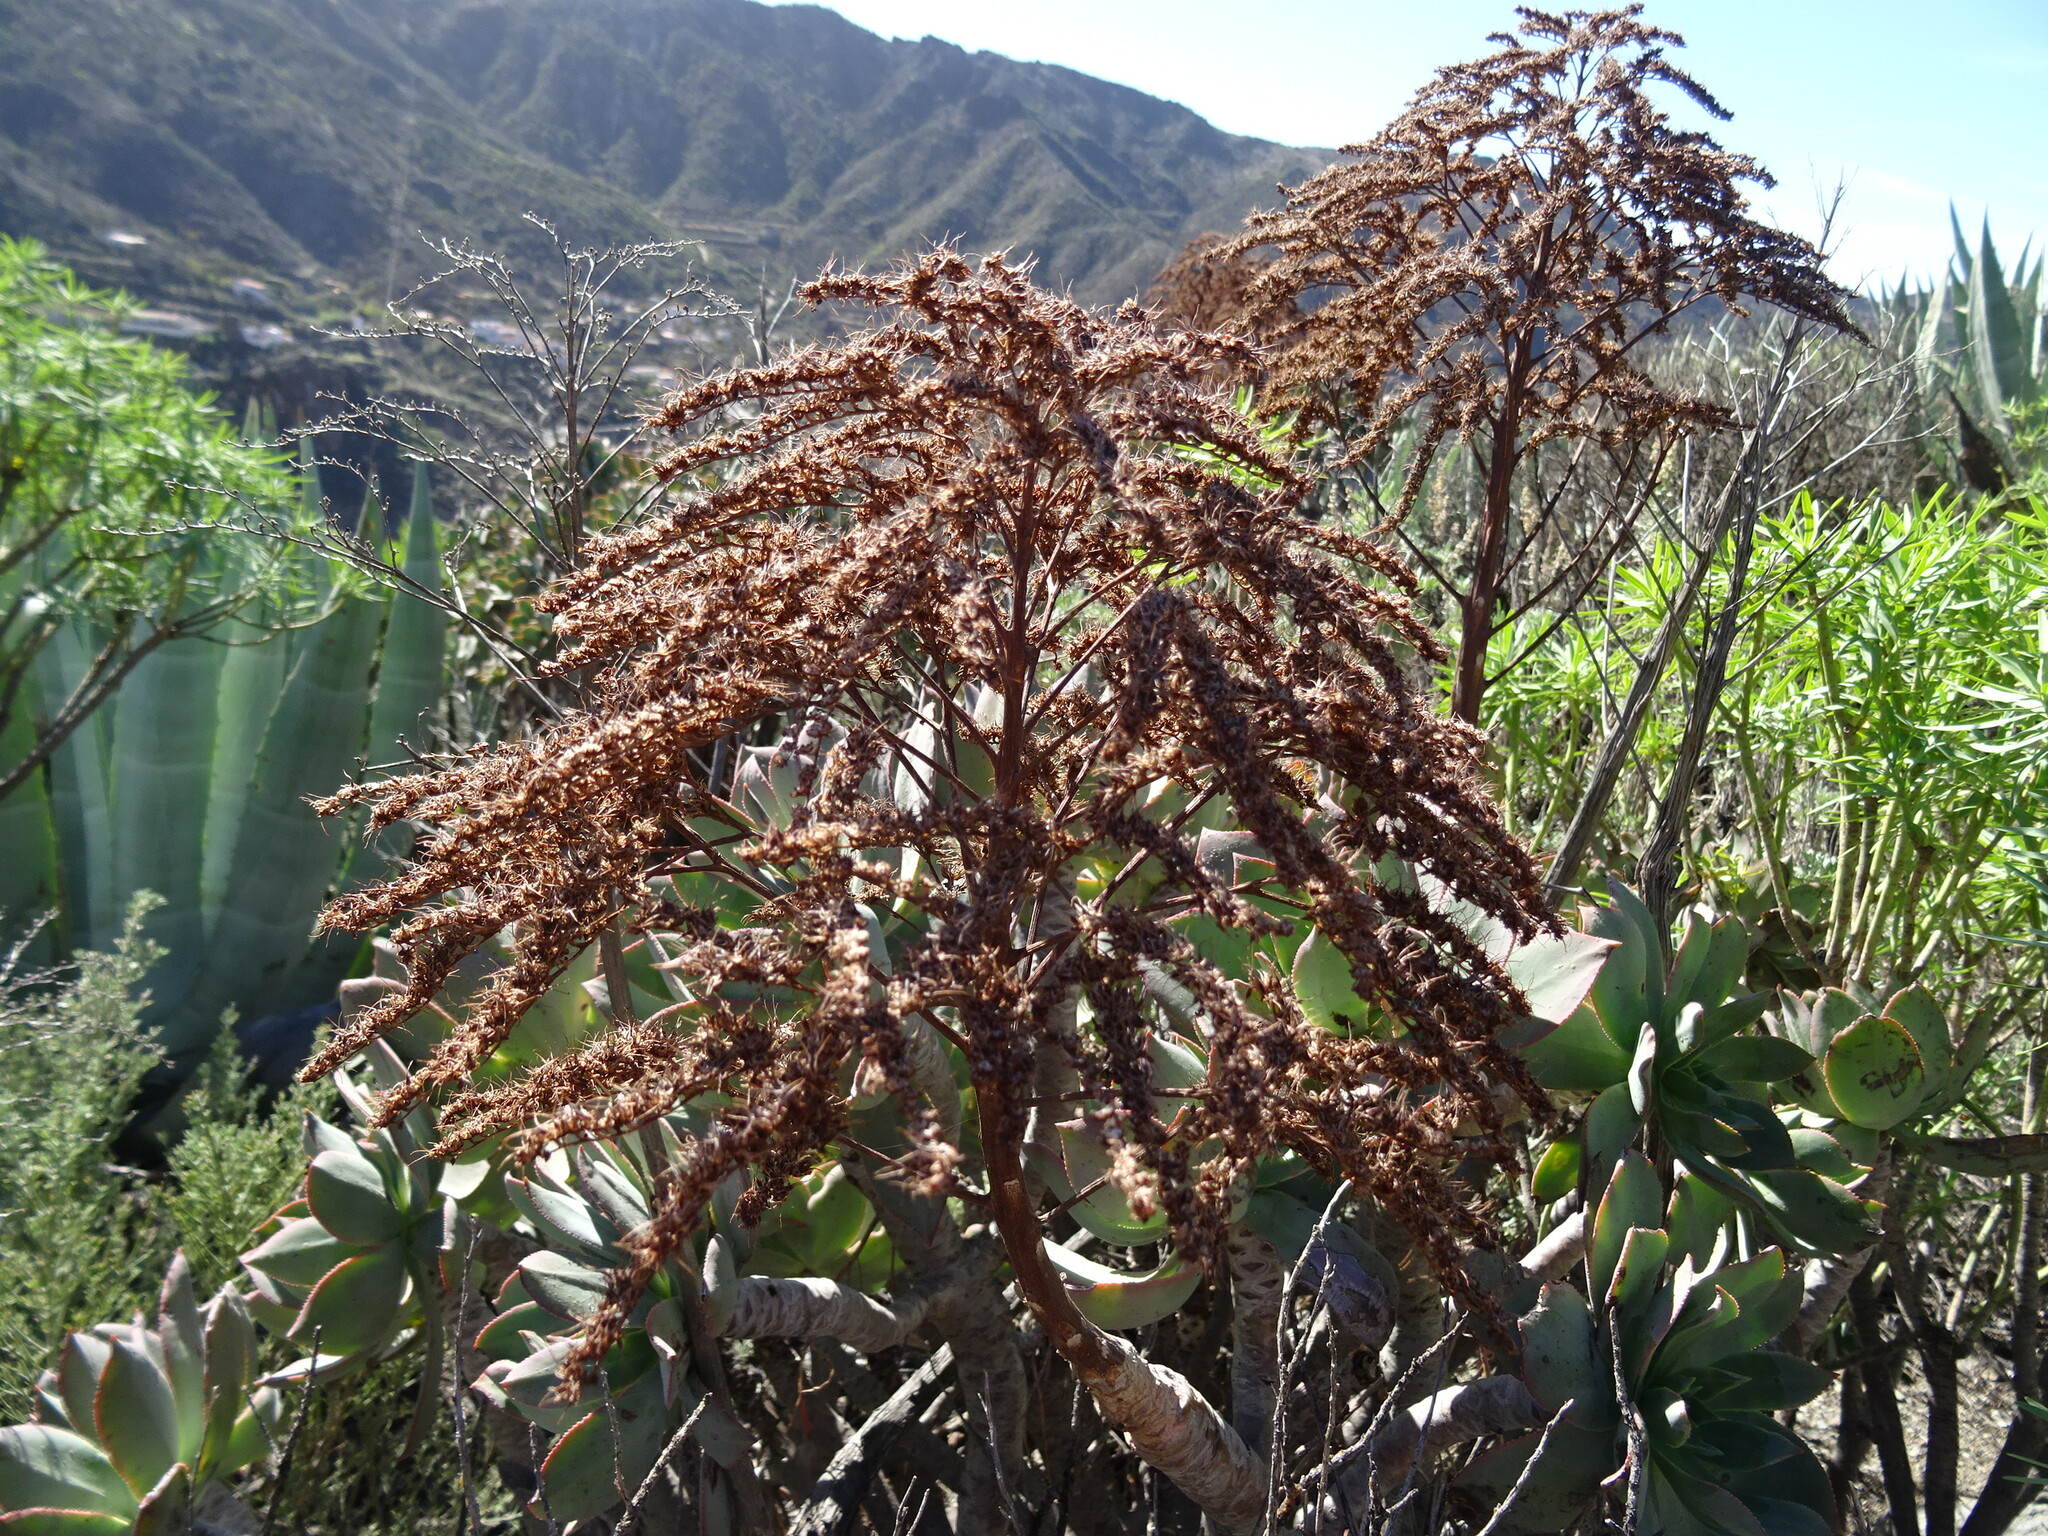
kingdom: Plantae
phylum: Tracheophyta
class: Magnoliopsida
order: Saxifragales
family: Crassulaceae
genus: Aeonium
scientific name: Aeonium percarneum
